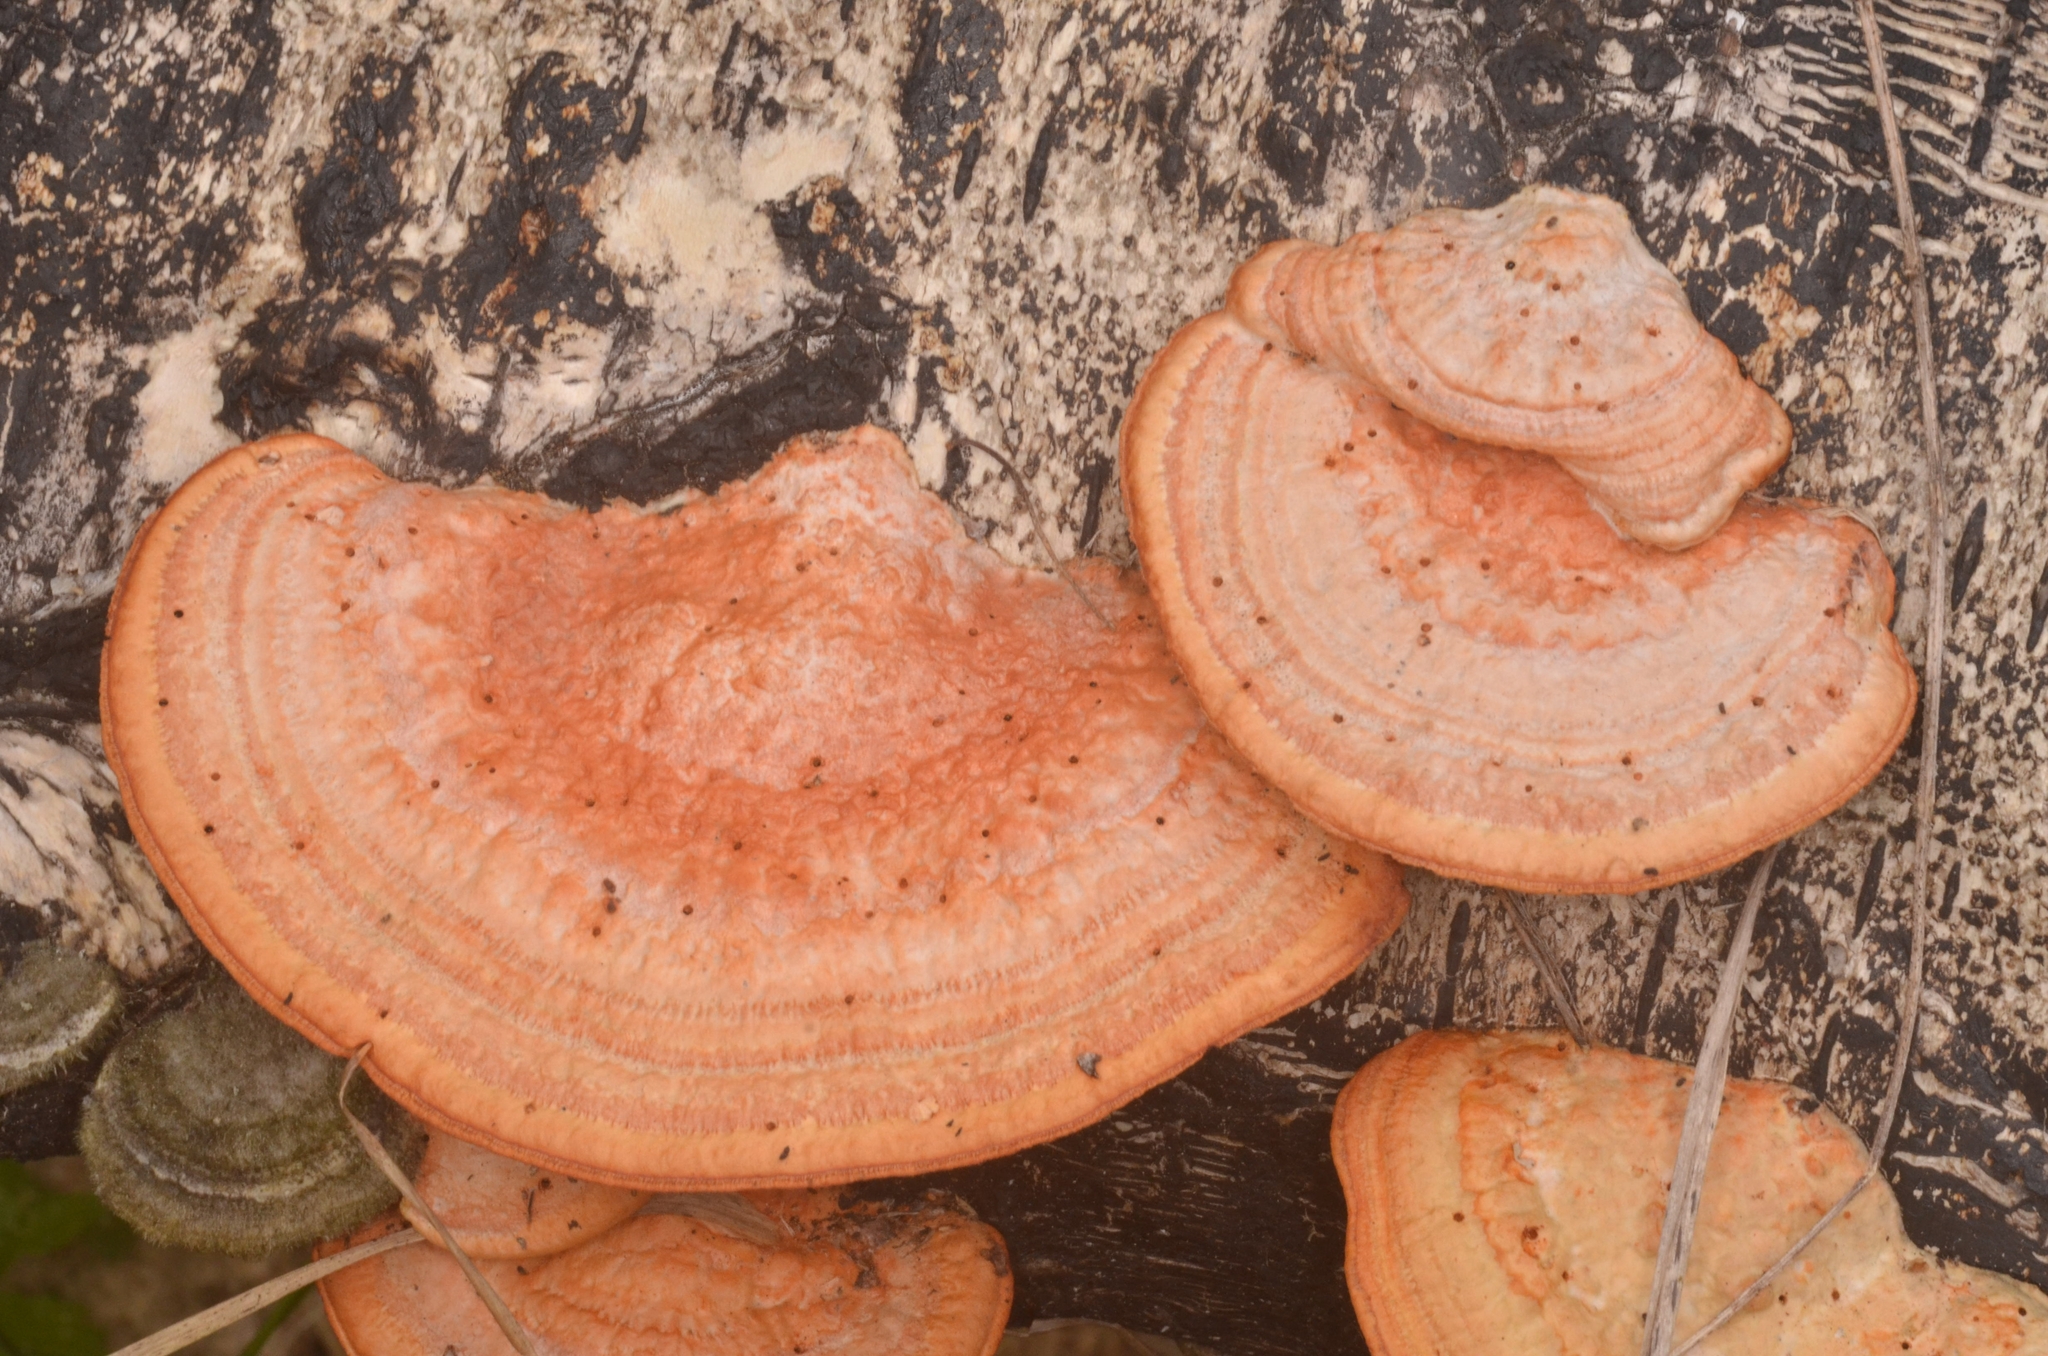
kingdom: Fungi
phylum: Basidiomycota
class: Agaricomycetes
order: Polyporales
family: Polyporaceae
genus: Trametes
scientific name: Trametes cinnabarina
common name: Northern cinnabar polypore
